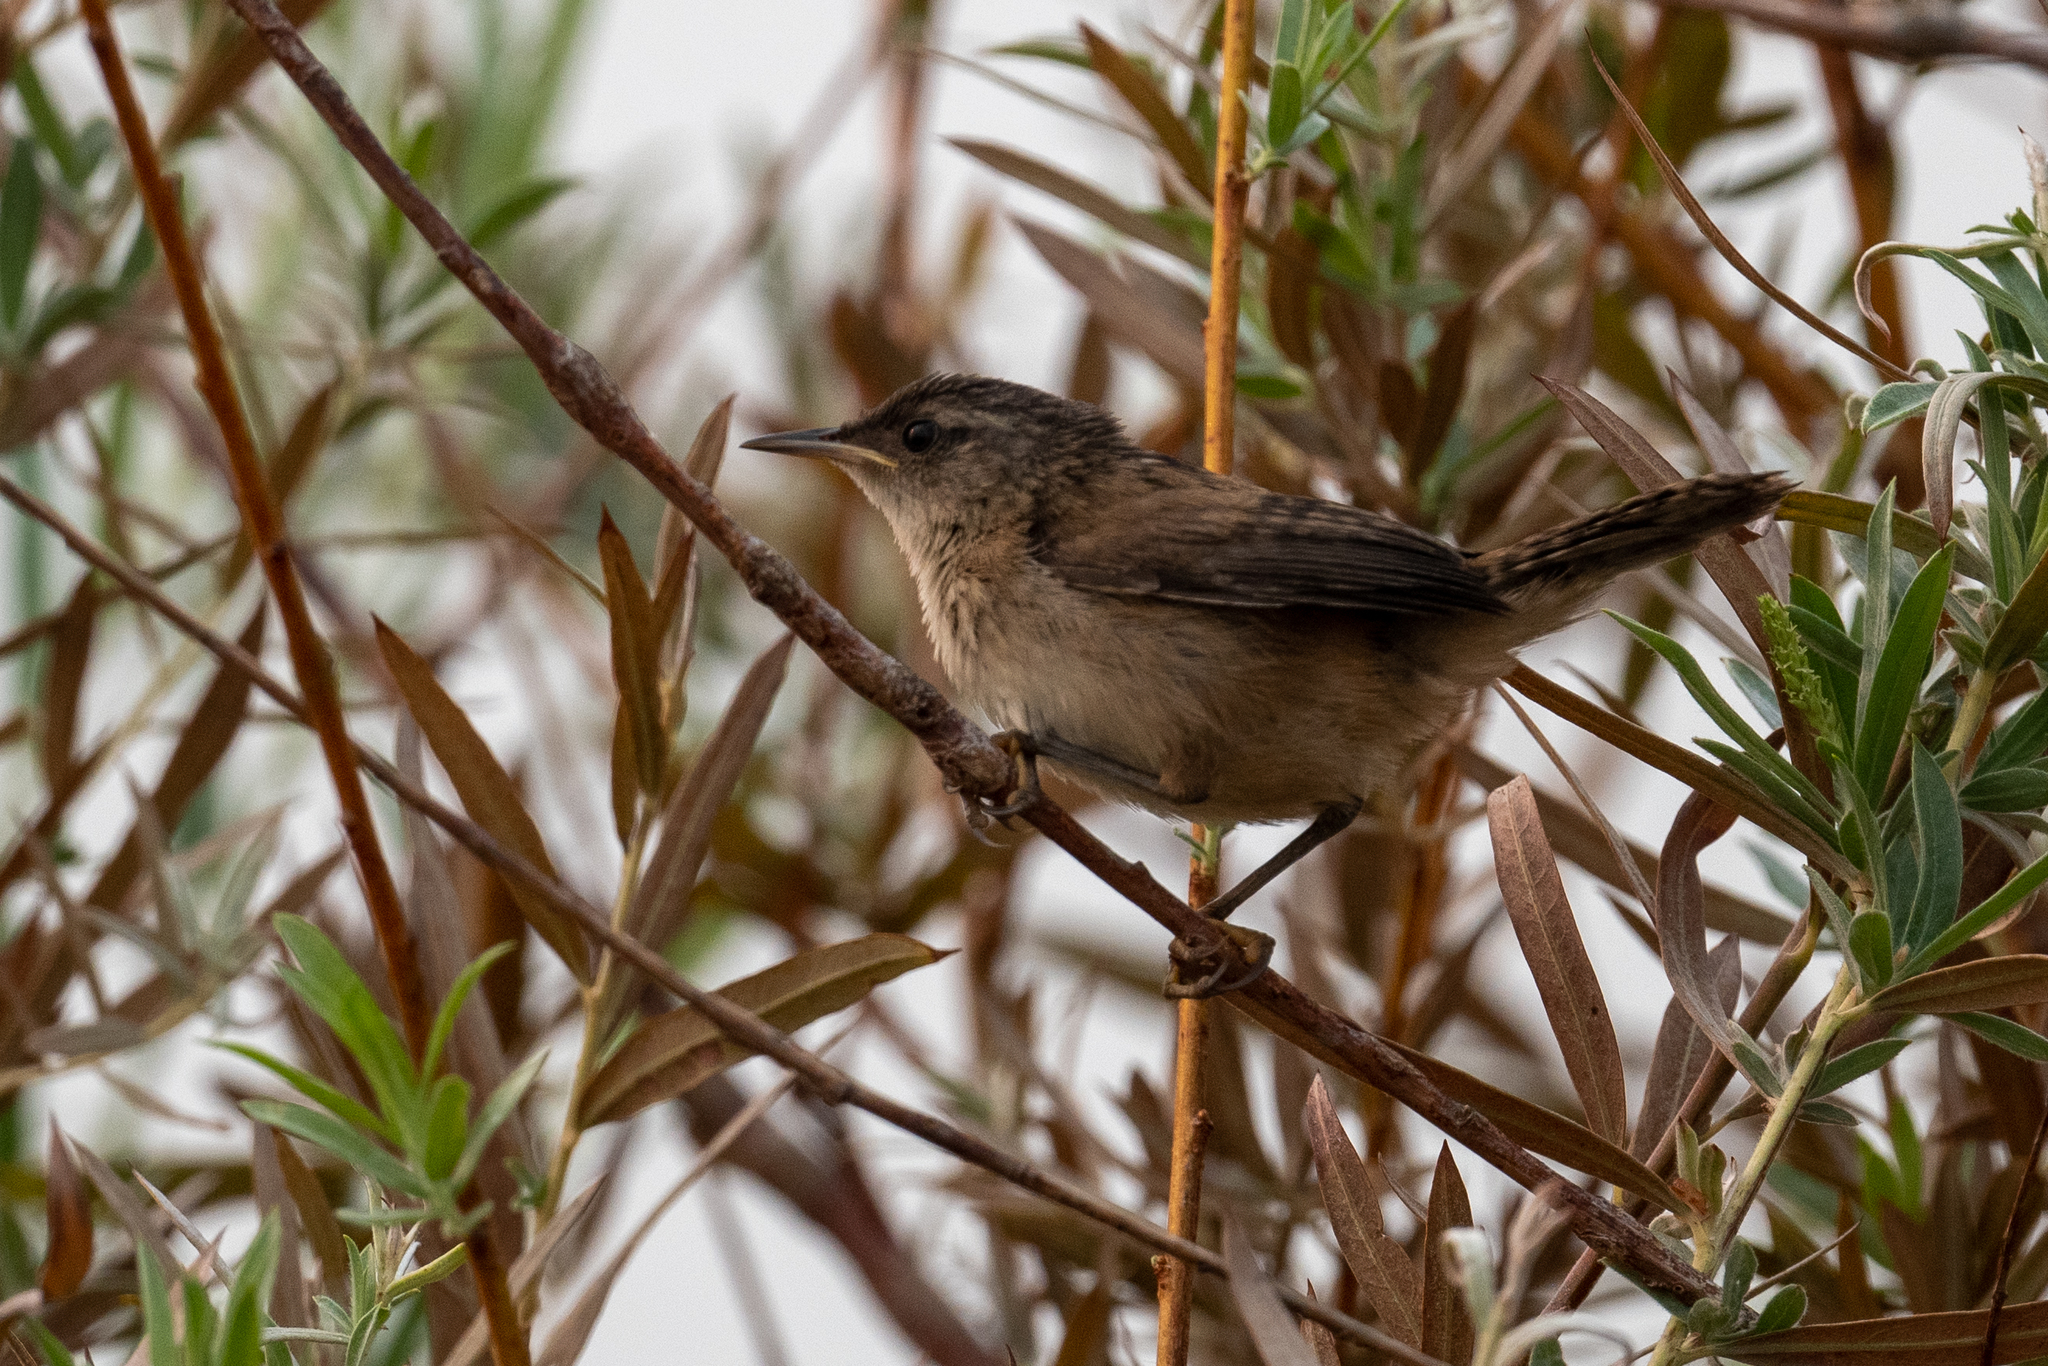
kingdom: Animalia
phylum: Chordata
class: Aves
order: Passeriformes
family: Troglodytidae
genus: Cistothorus
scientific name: Cistothorus palustris
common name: Marsh wren
